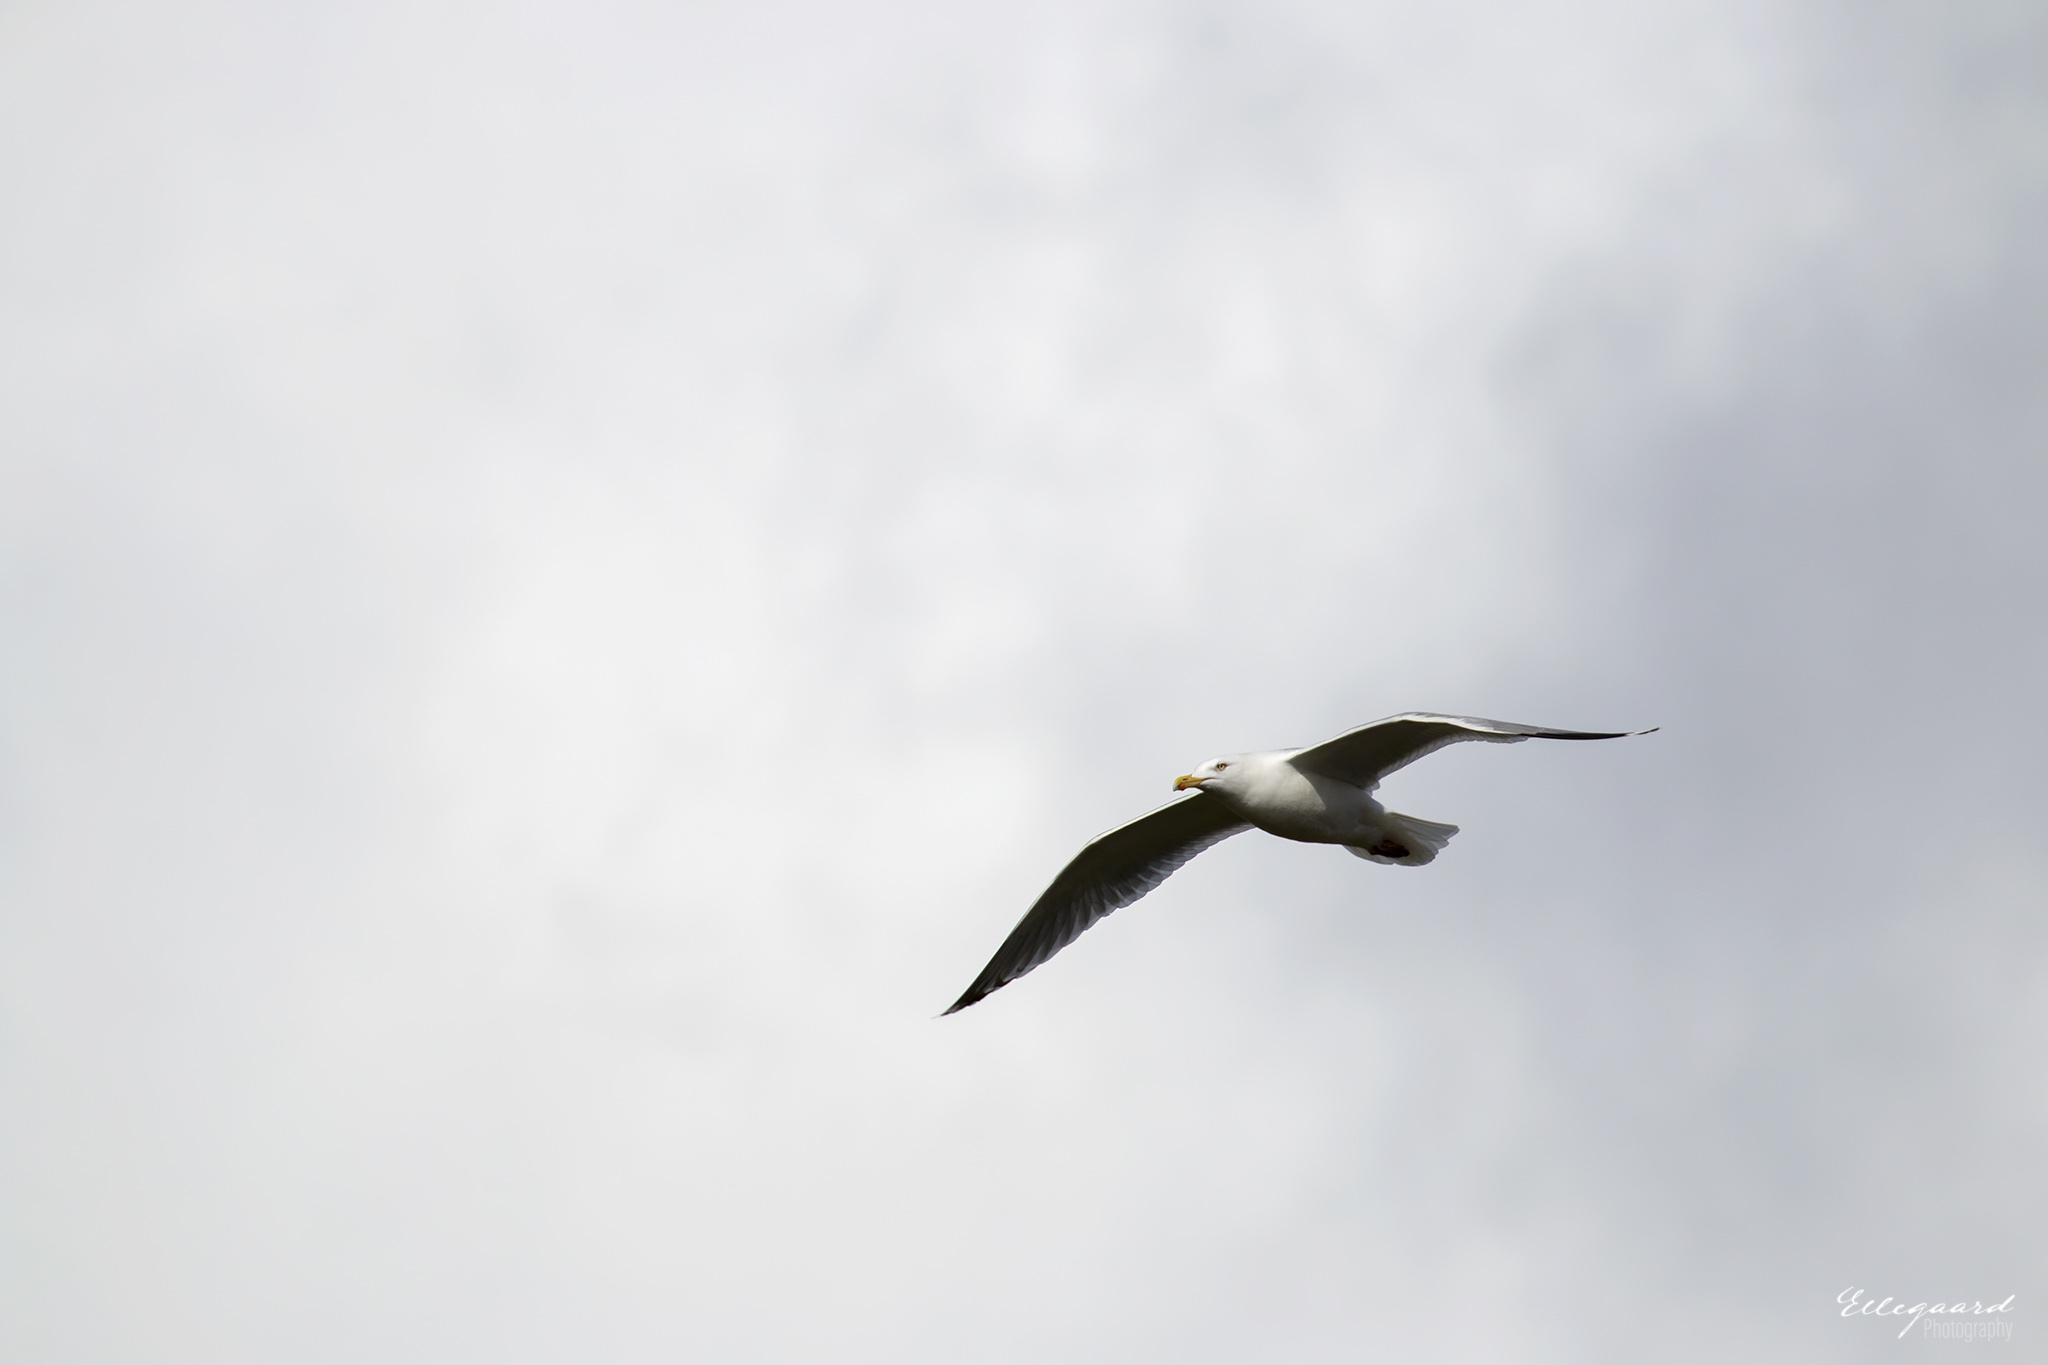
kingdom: Animalia
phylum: Chordata
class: Aves
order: Charadriiformes
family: Laridae
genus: Larus
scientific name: Larus argentatus
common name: Herring gull
